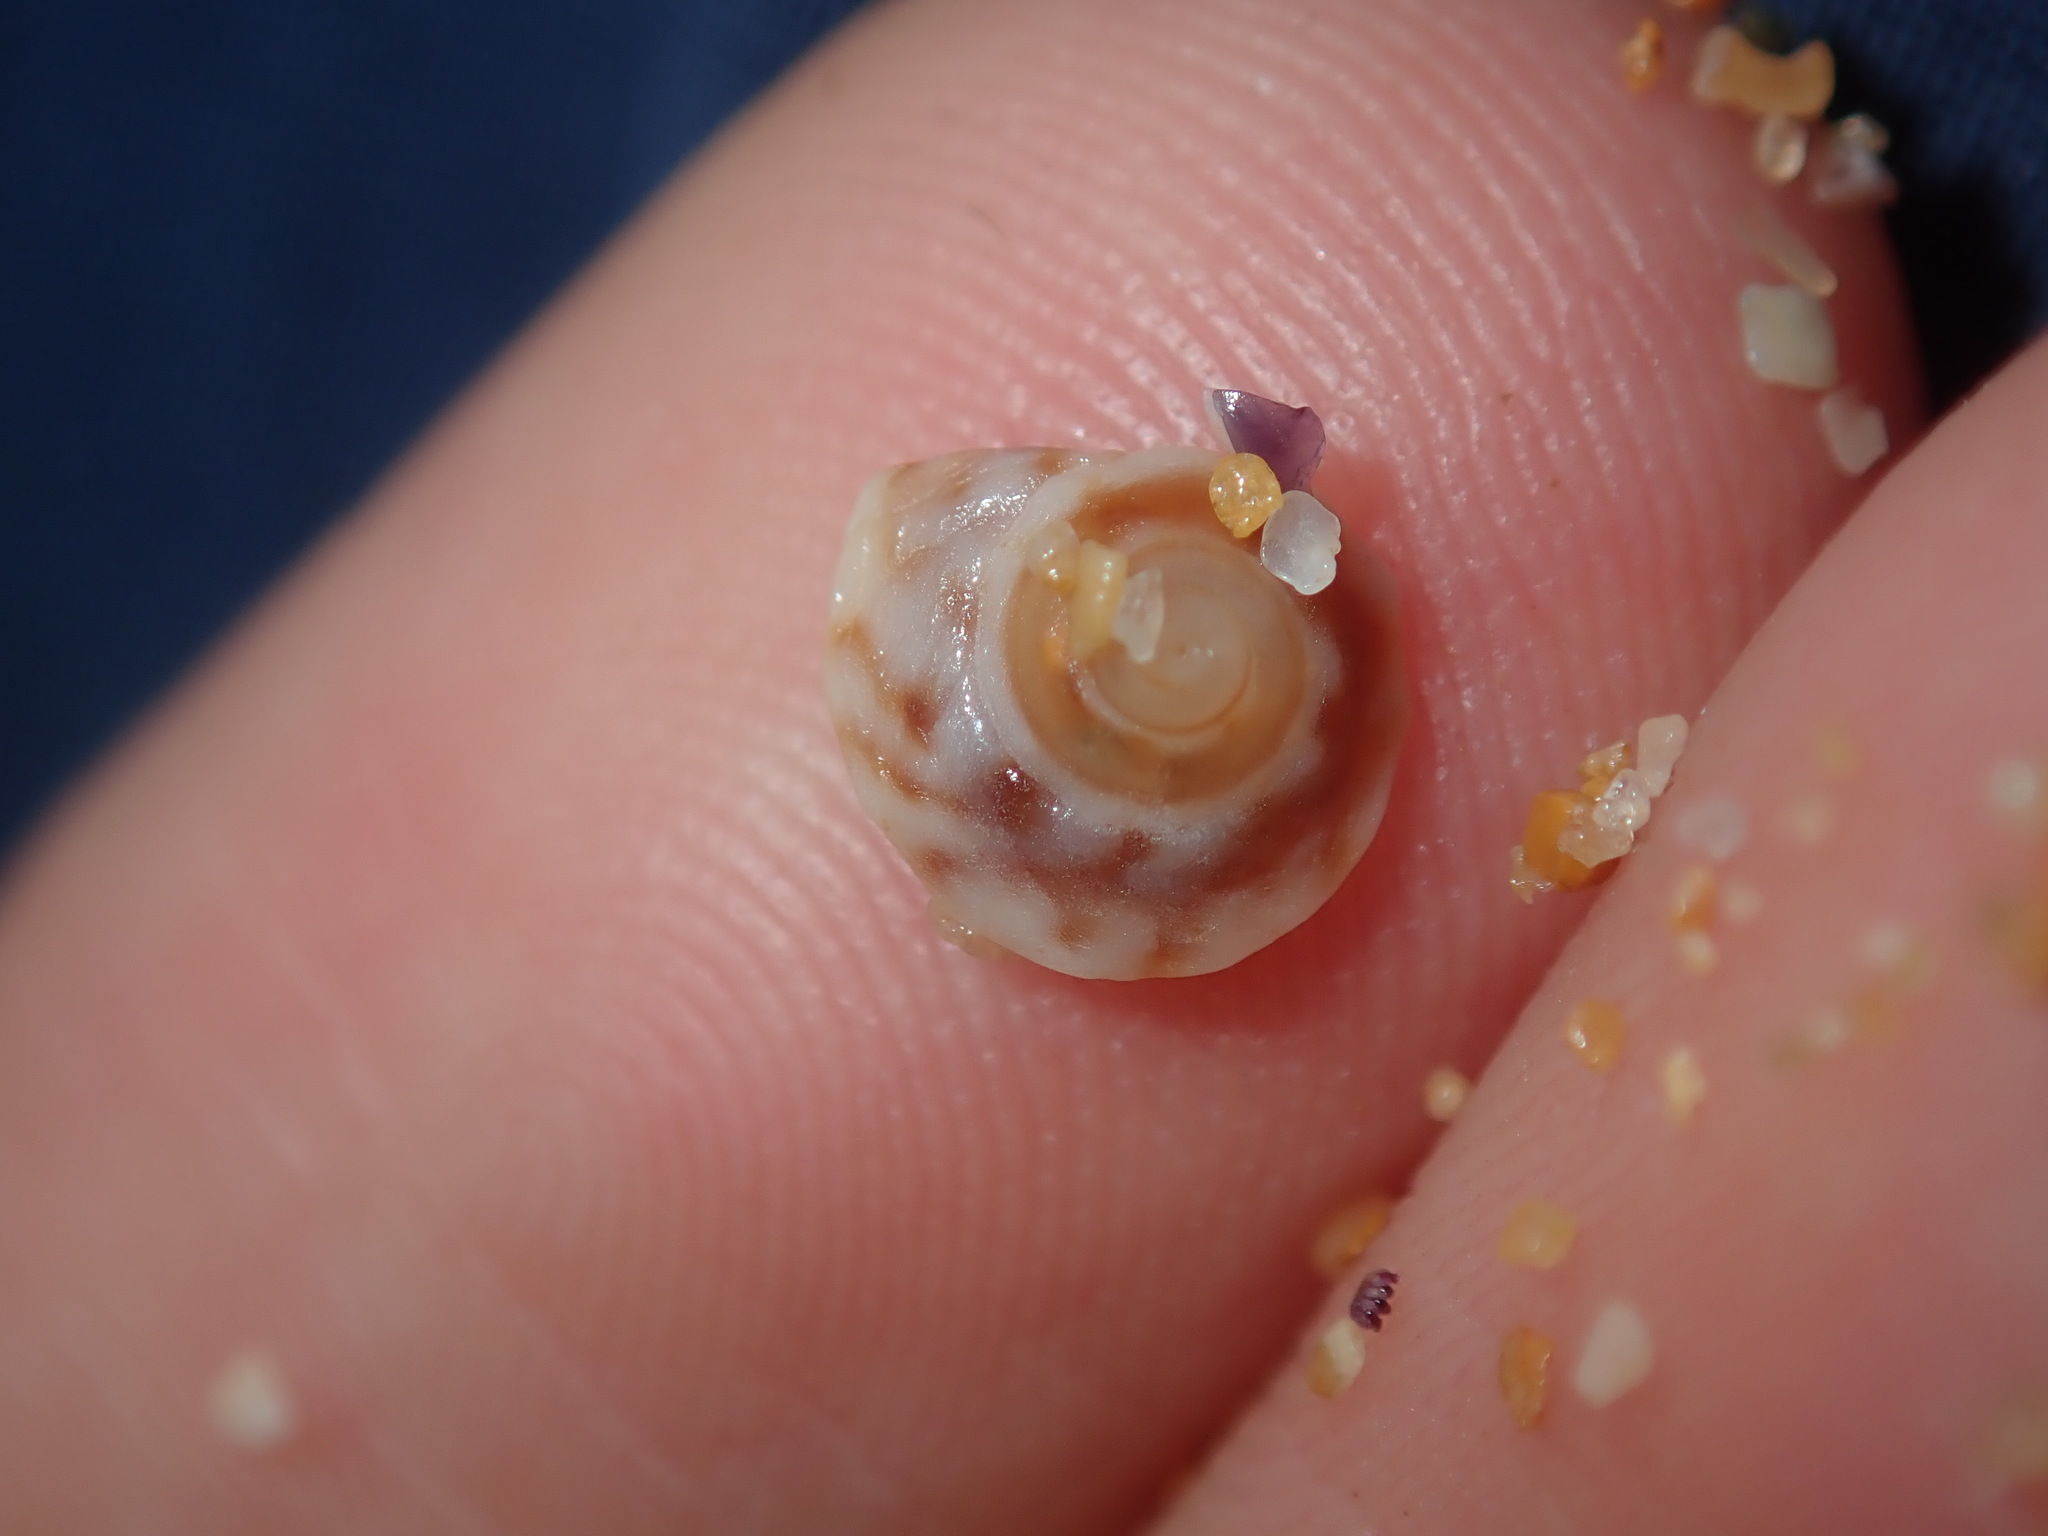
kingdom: Animalia
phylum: Mollusca
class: Gastropoda
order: Littorinimorpha
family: Littorinidae
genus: Bembicium
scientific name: Bembicium nanum
